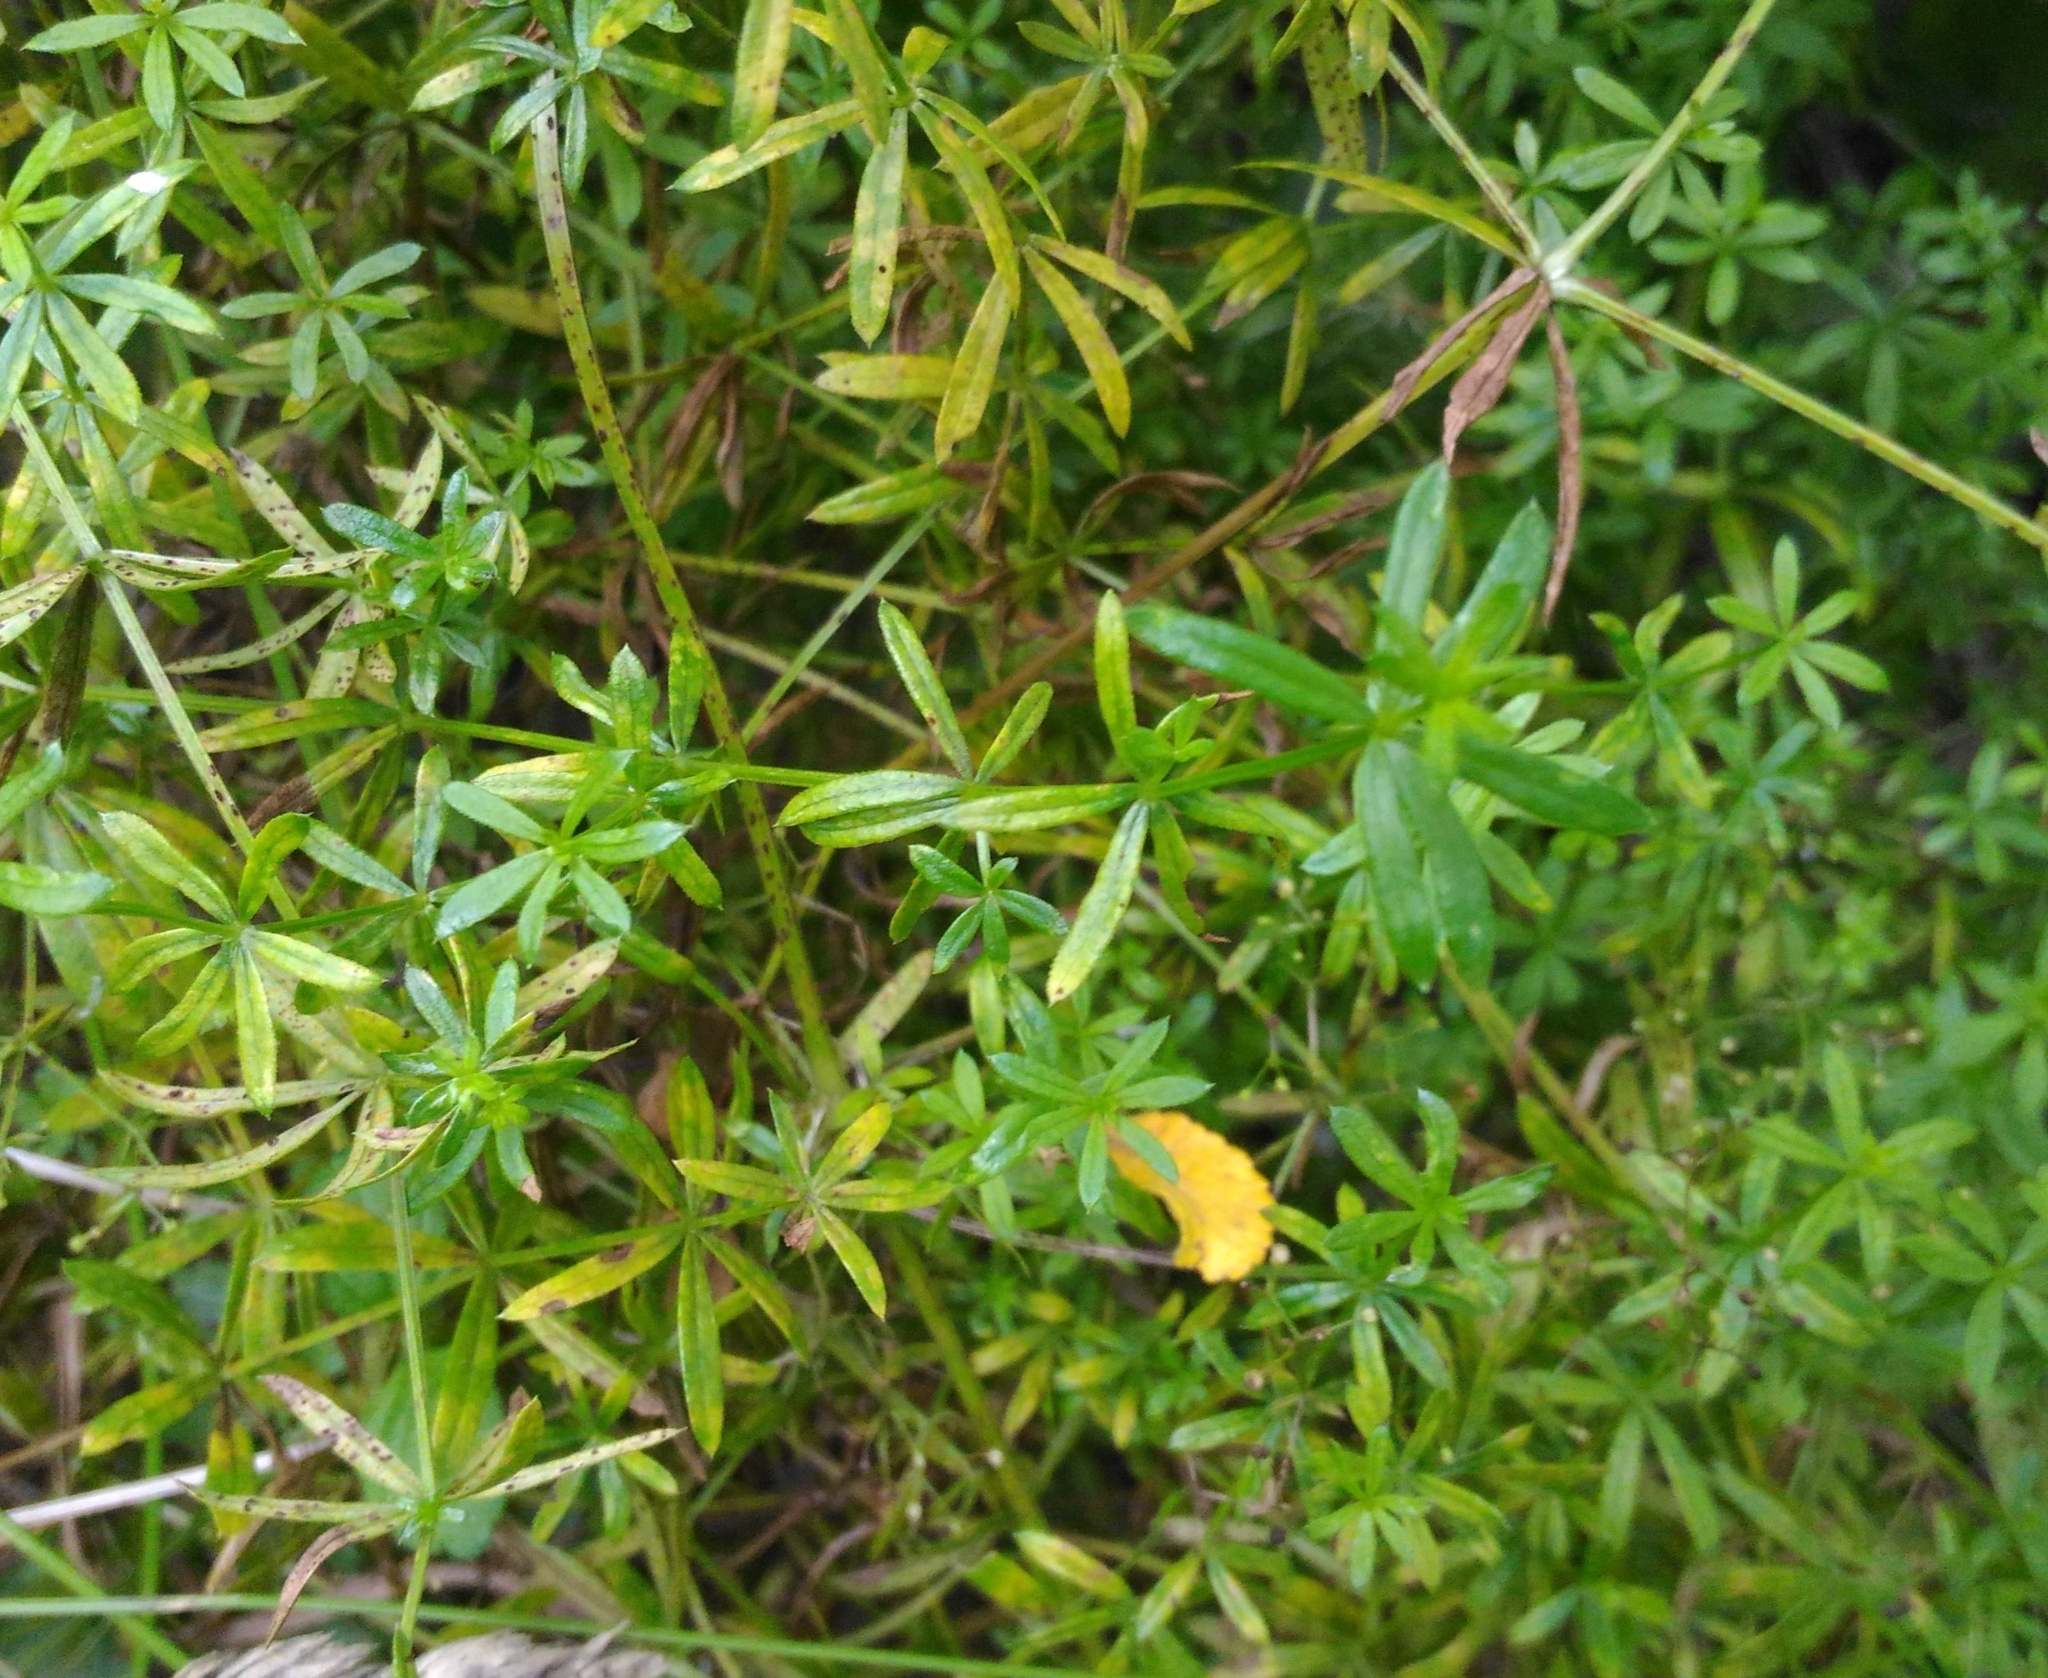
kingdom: Plantae
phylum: Tracheophyta
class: Magnoliopsida
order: Gentianales
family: Rubiaceae
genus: Galium
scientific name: Galium mollugo
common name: Hedge bedstraw
